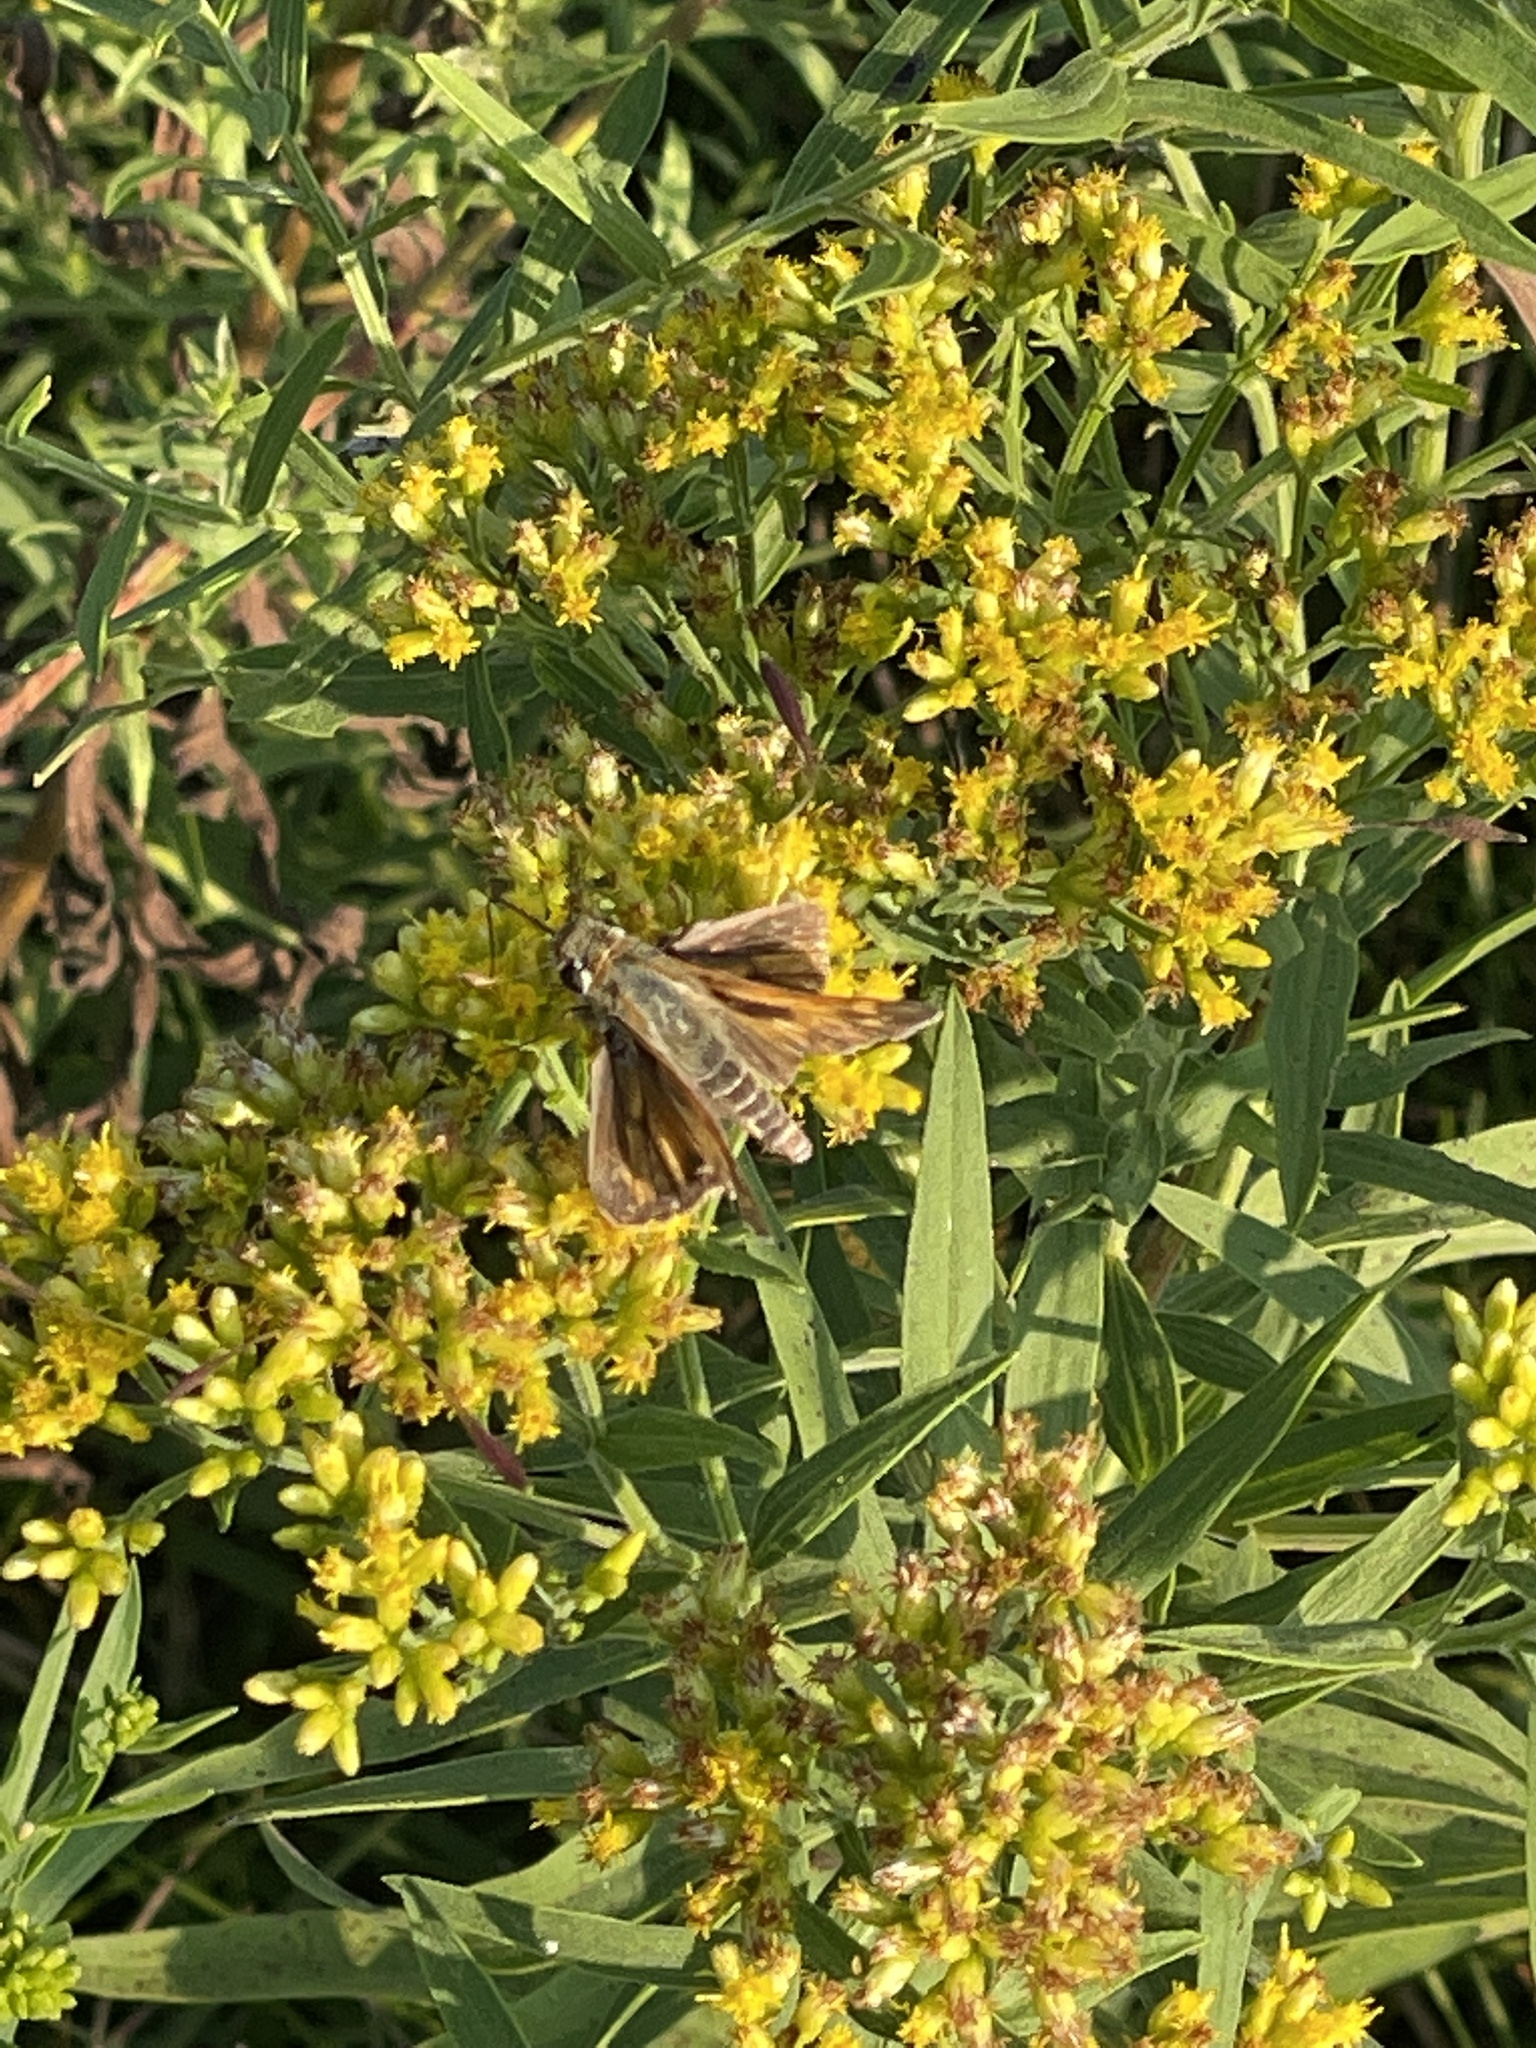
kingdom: Animalia
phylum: Arthropoda
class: Insecta
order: Lepidoptera
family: Hesperiidae
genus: Atalopedes
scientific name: Atalopedes
